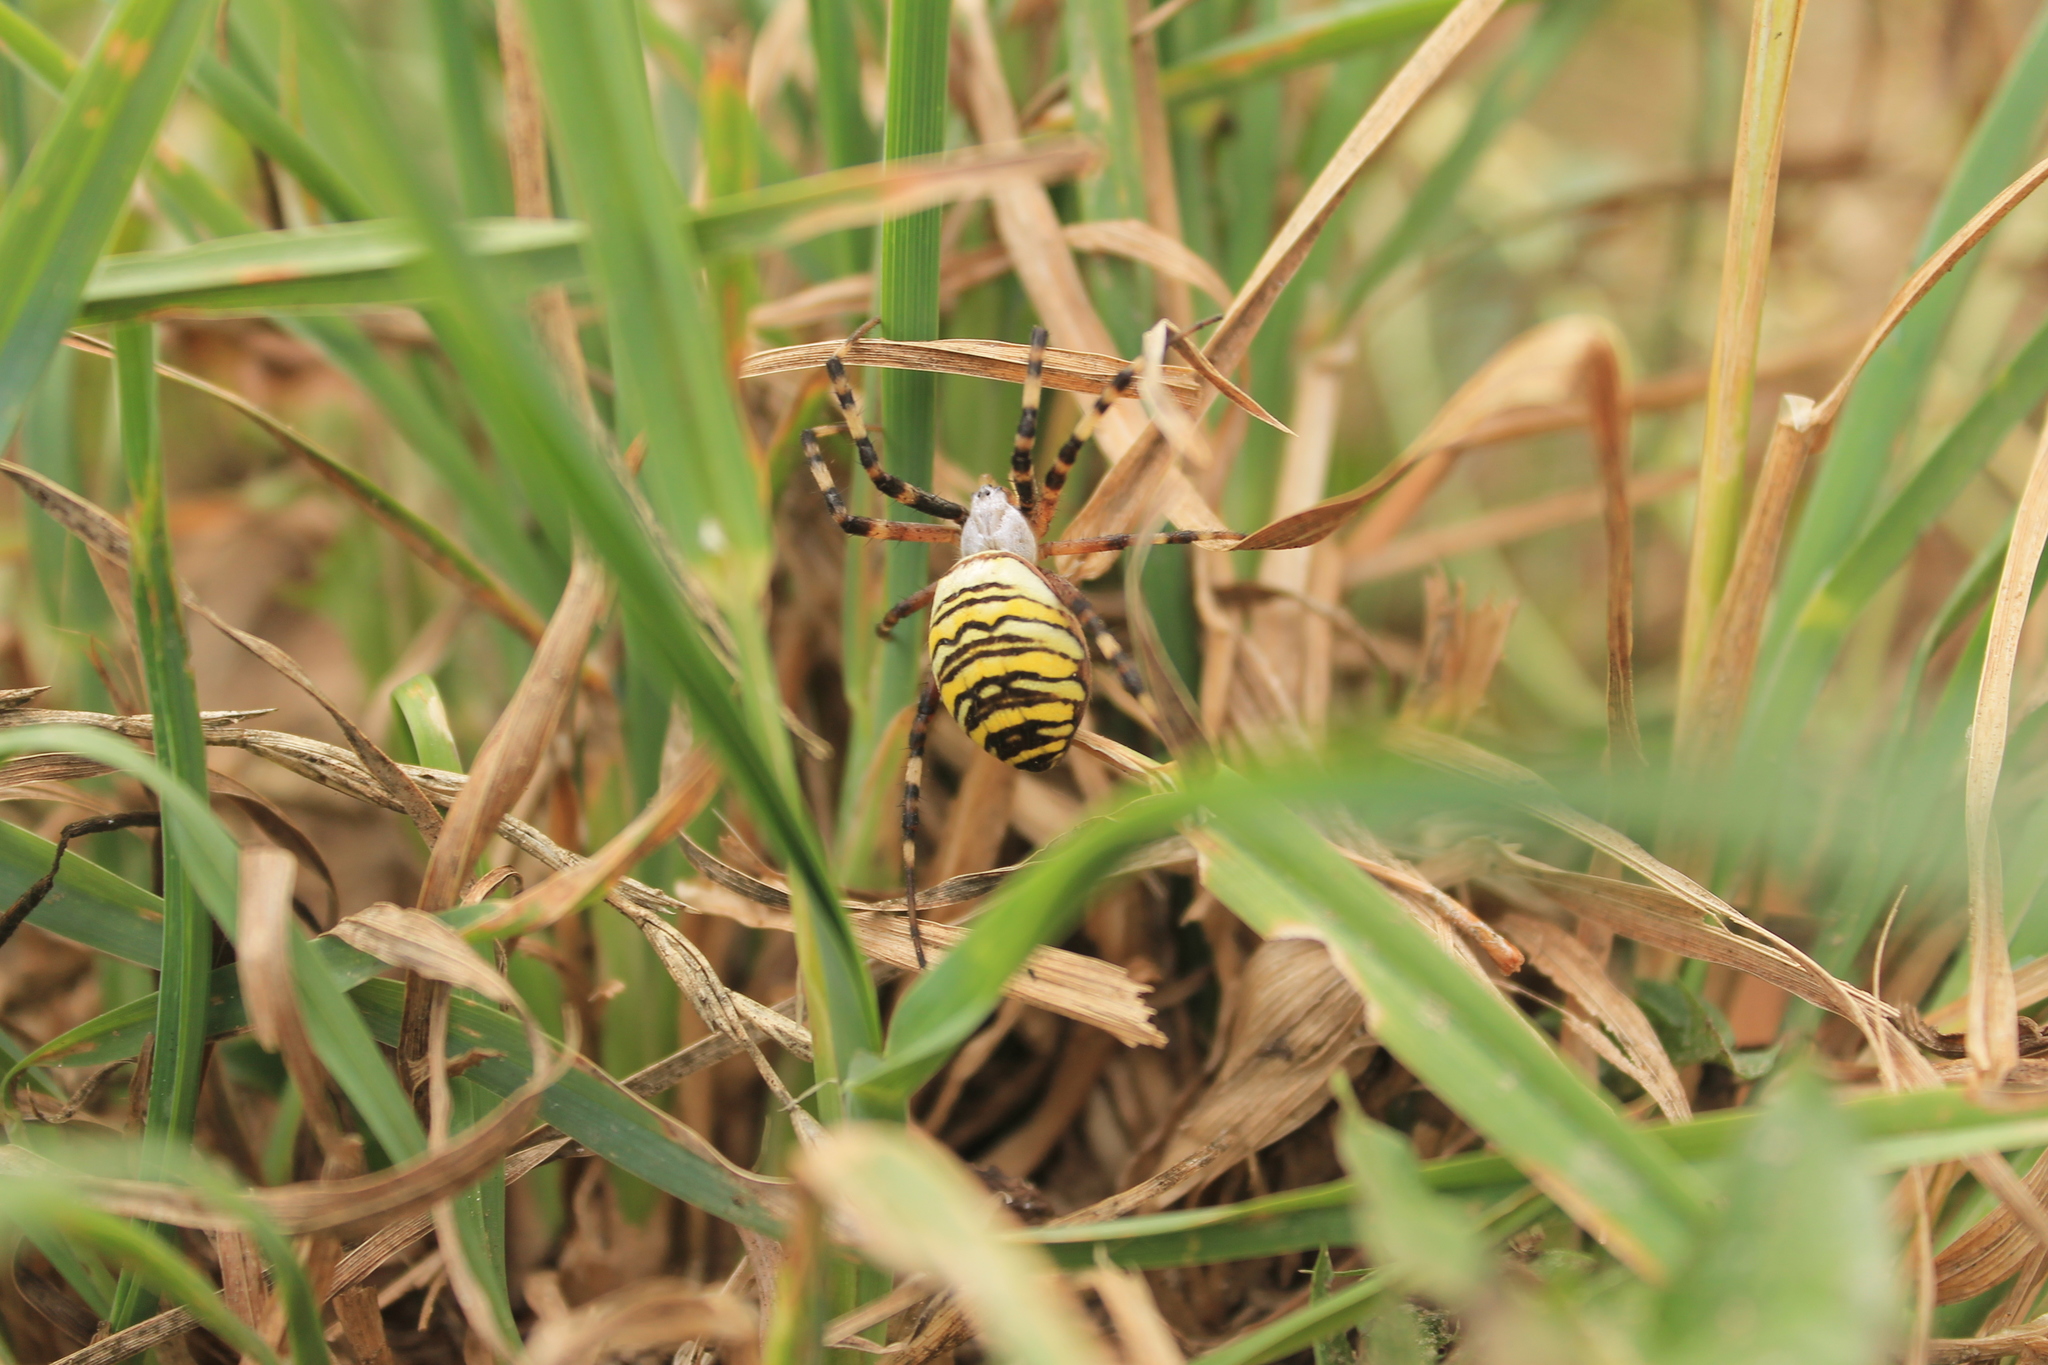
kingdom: Animalia
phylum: Arthropoda
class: Arachnida
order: Araneae
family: Araneidae
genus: Argiope
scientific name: Argiope bruennichi
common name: Wasp spider
